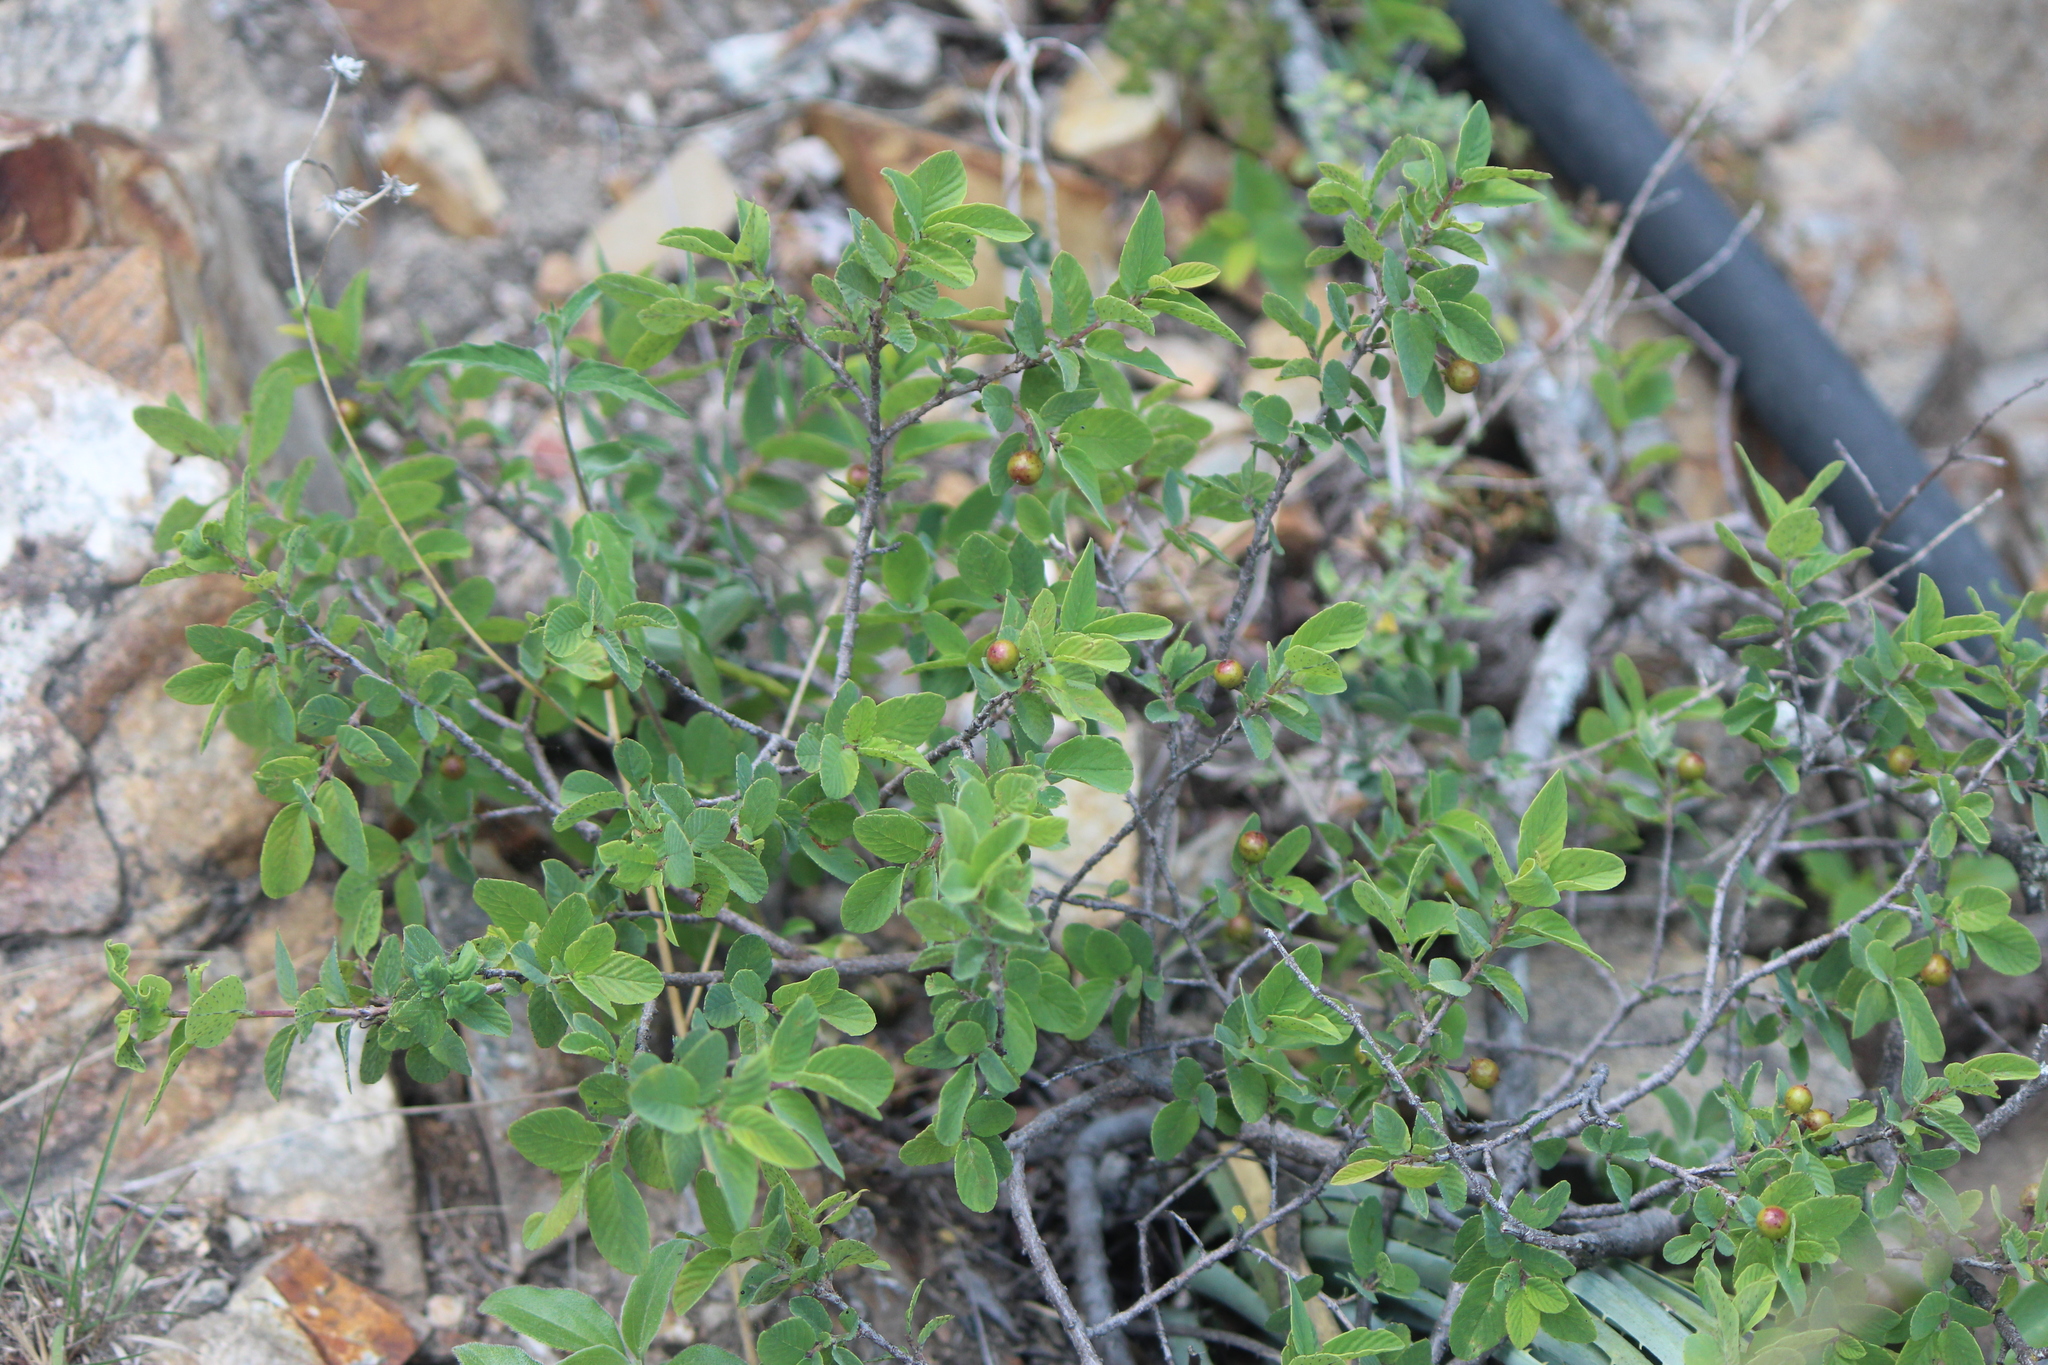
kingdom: Plantae
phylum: Tracheophyta
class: Magnoliopsida
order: Rosales
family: Rhamnaceae
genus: Karwinskia
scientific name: Karwinskia subcordata
